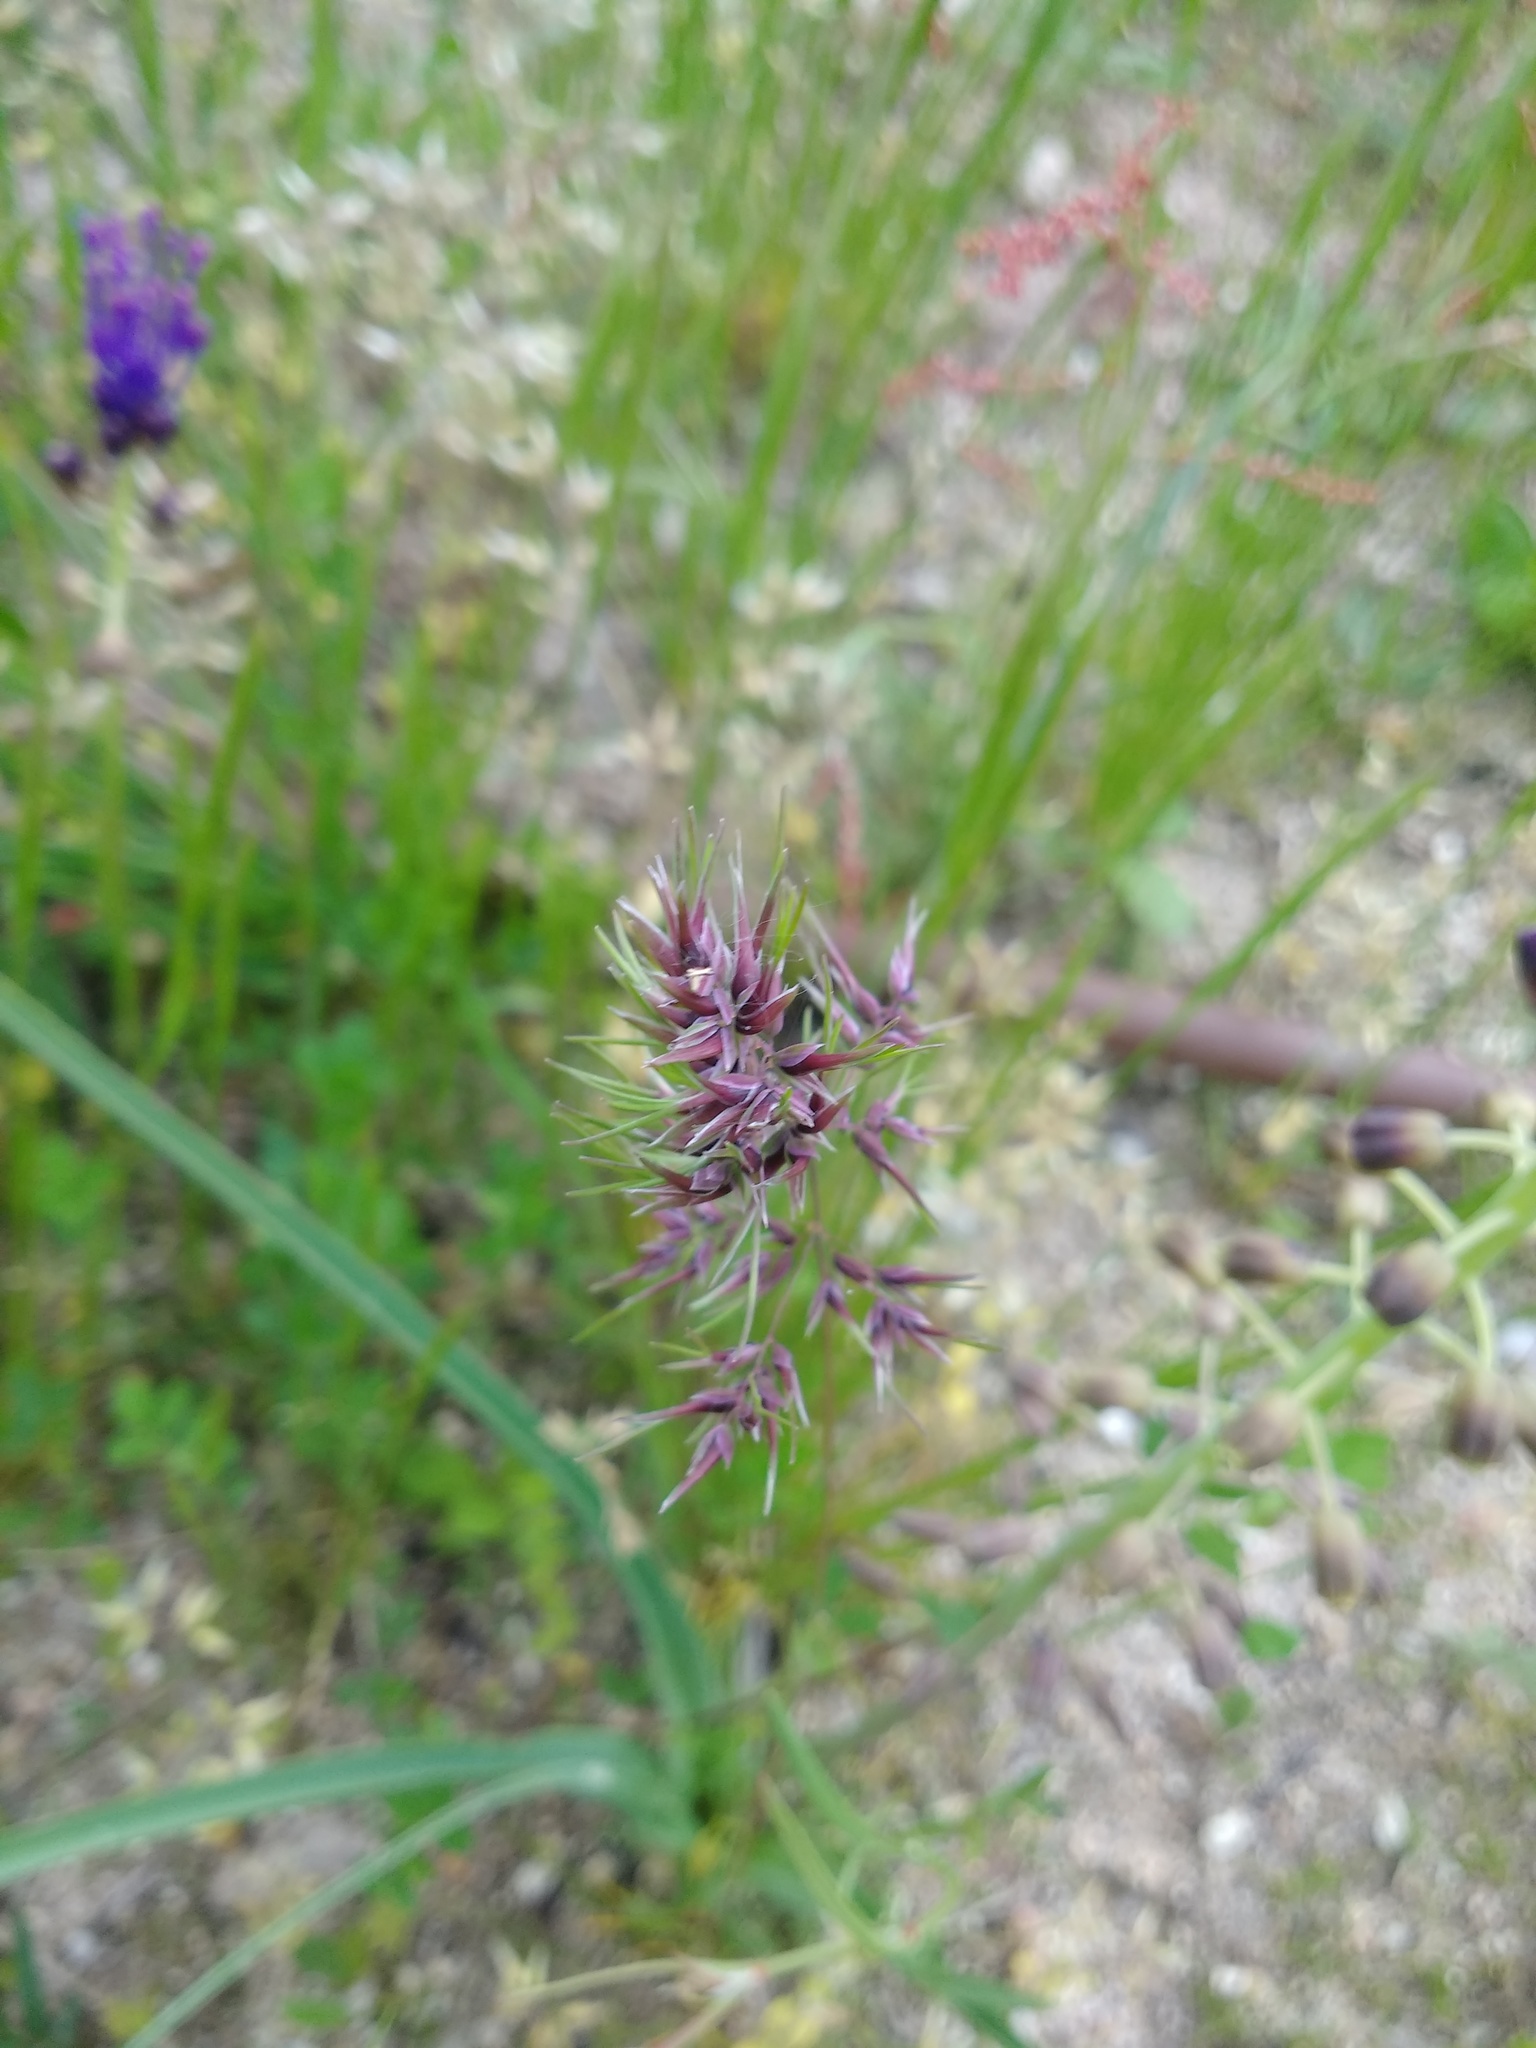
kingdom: Plantae
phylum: Tracheophyta
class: Liliopsida
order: Poales
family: Poaceae
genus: Poa
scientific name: Poa bulbosa
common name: Bulbous bluegrass
